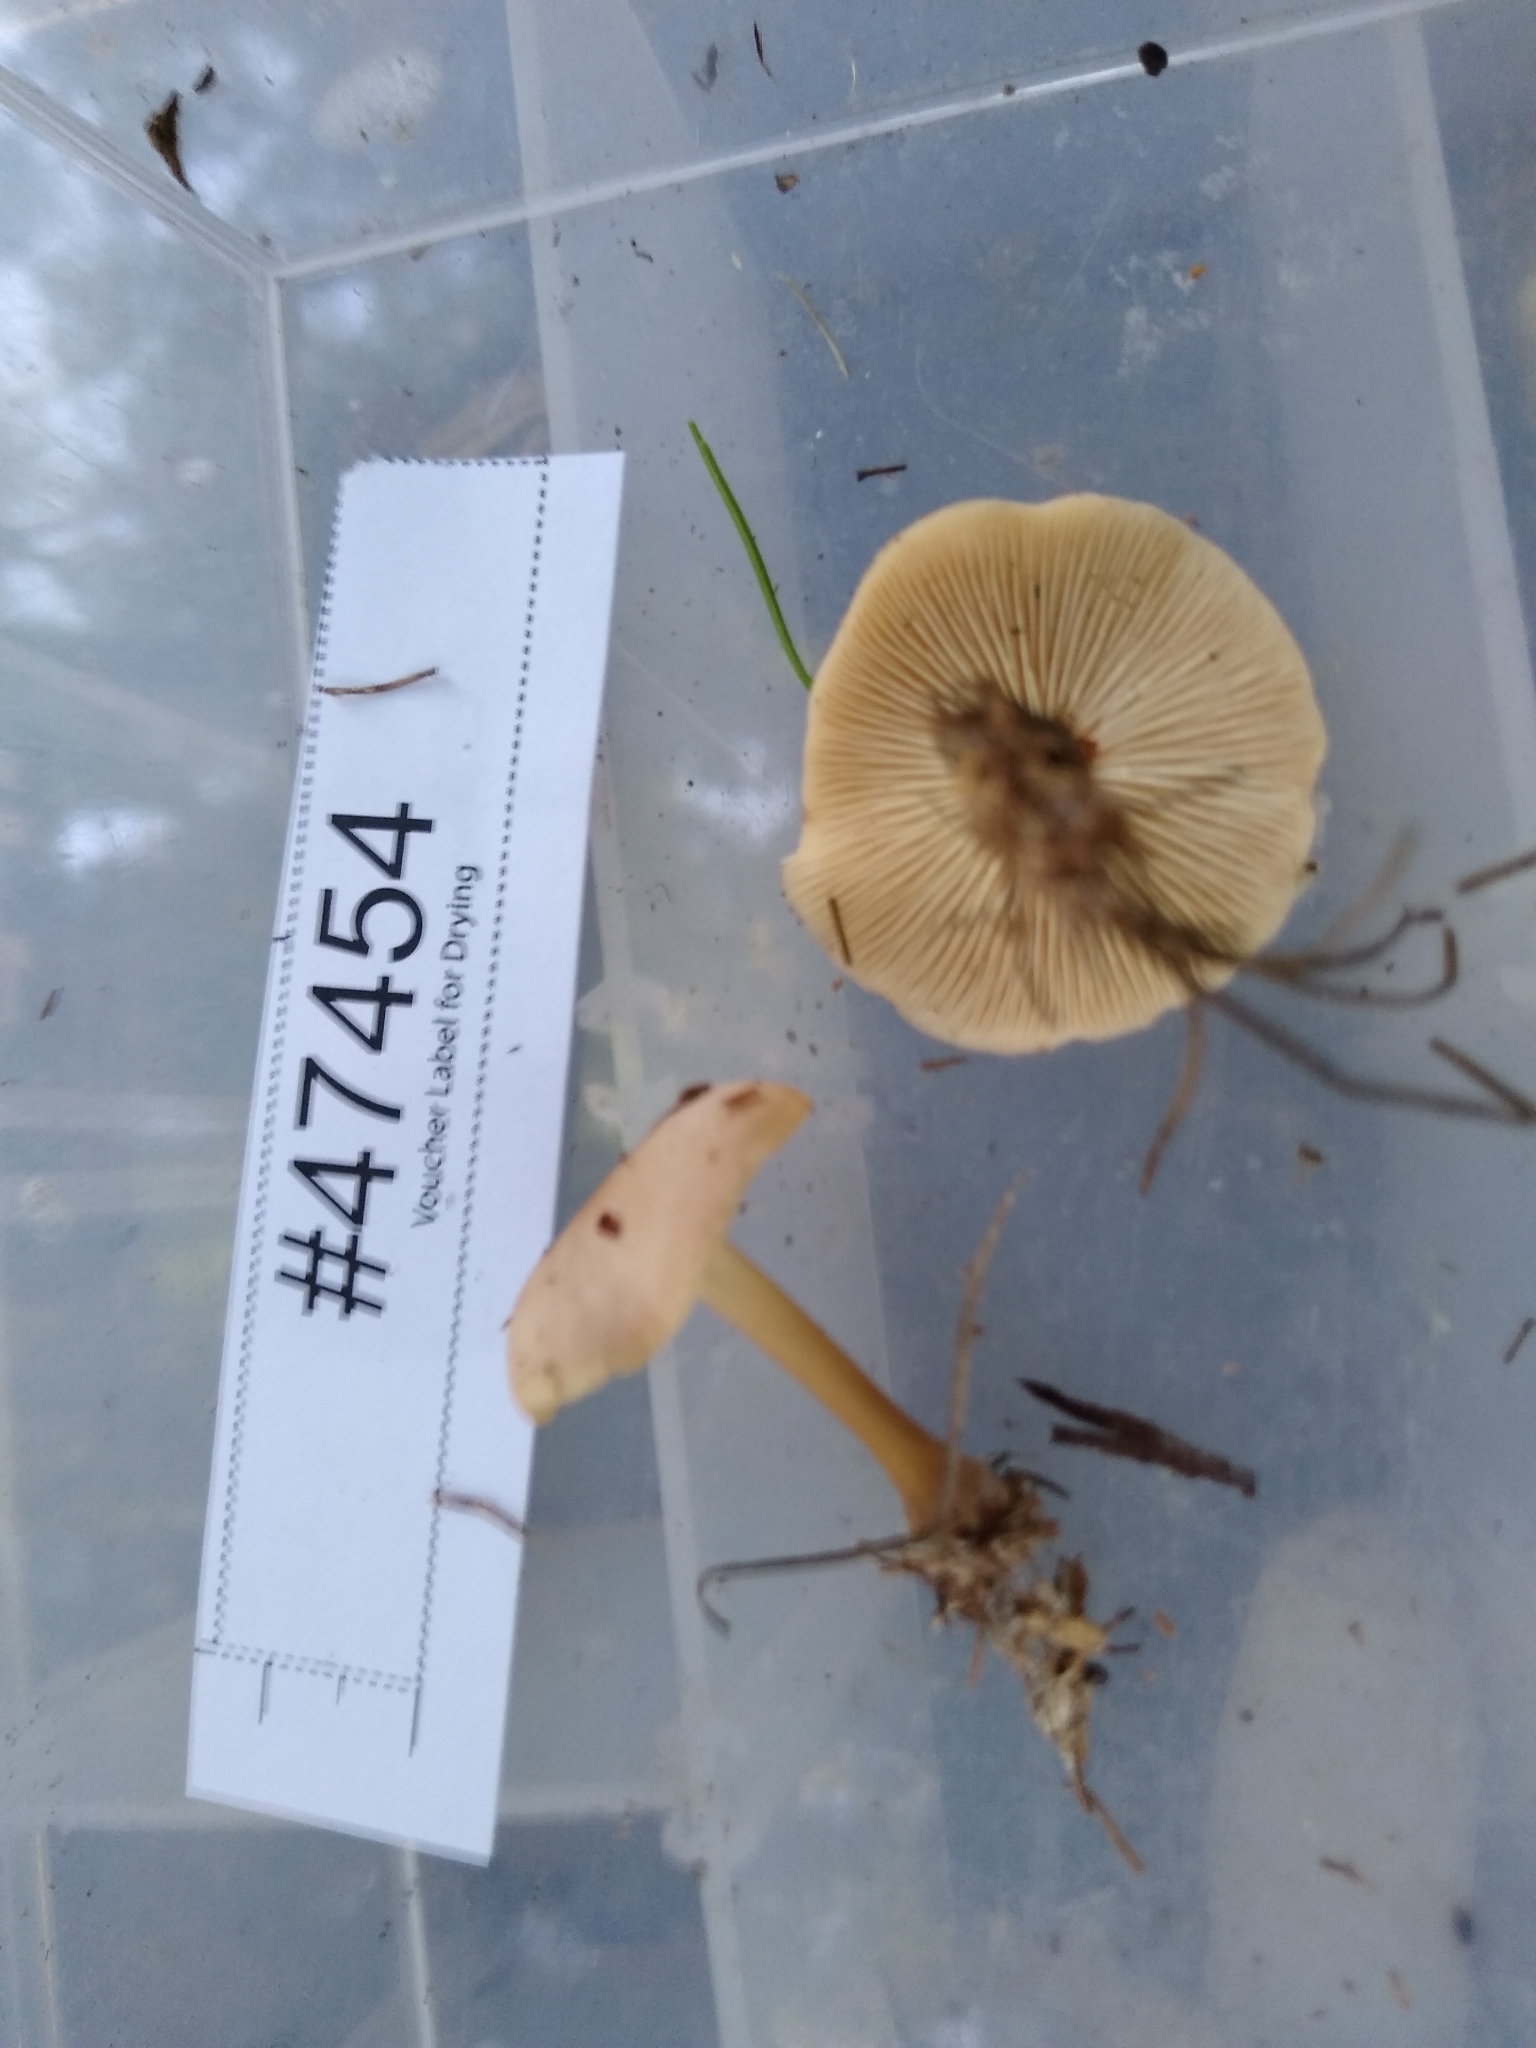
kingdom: Fungi
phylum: Basidiomycota
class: Agaricomycetes
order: Agaricales
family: Omphalotaceae
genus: Rhodocollybia
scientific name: Rhodocollybia butyracea
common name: Butter cap
